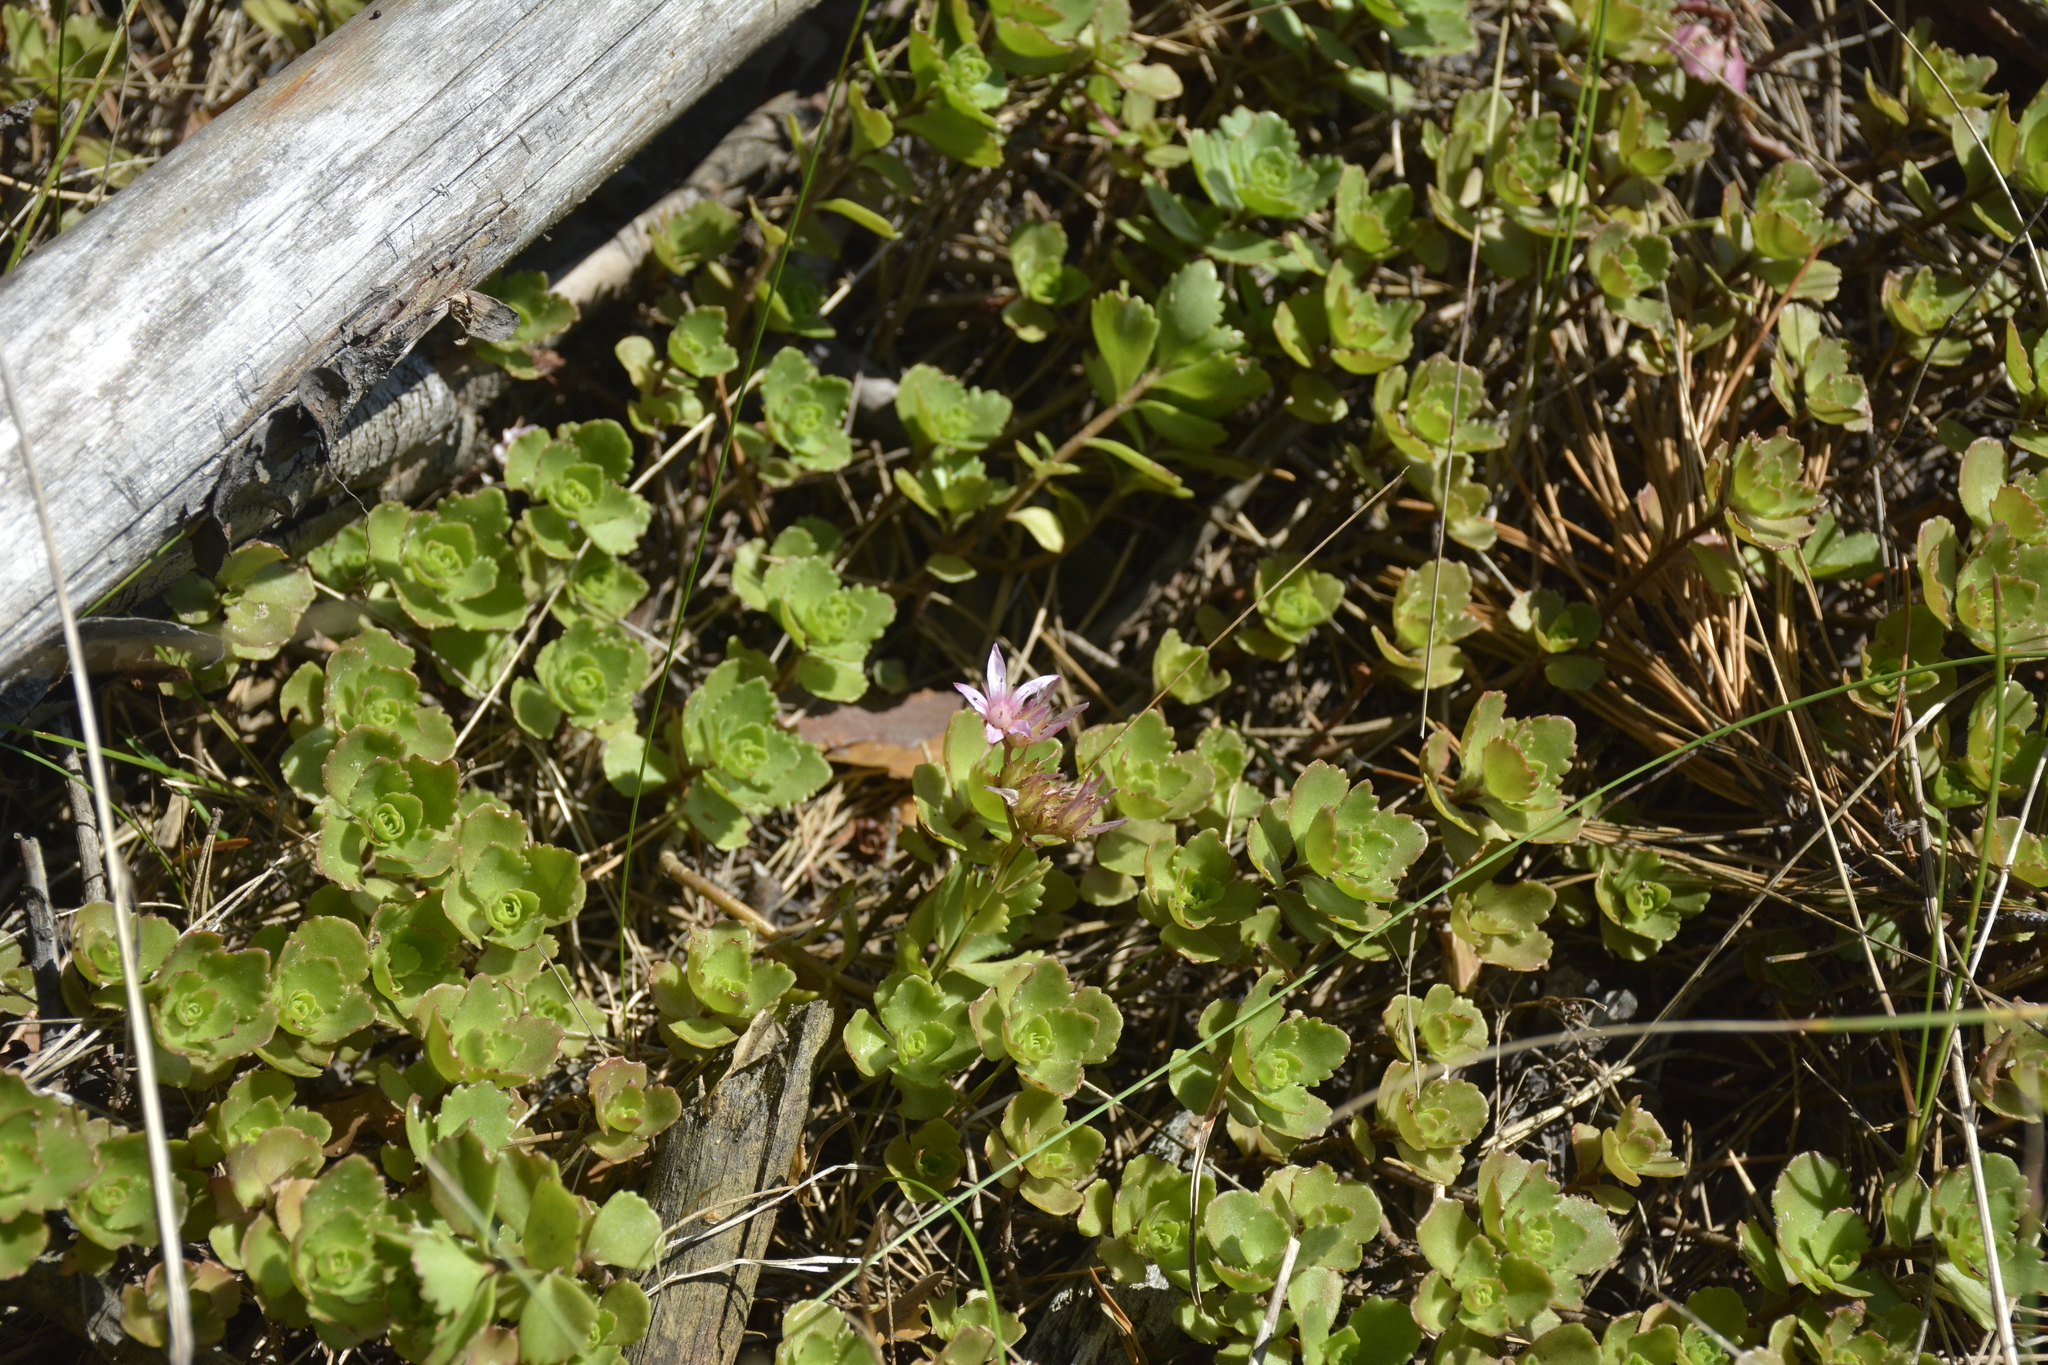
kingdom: Plantae
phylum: Tracheophyta
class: Magnoliopsida
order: Saxifragales
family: Crassulaceae
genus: Phedimus
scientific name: Phedimus spurius
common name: Caucasian stonecrop
